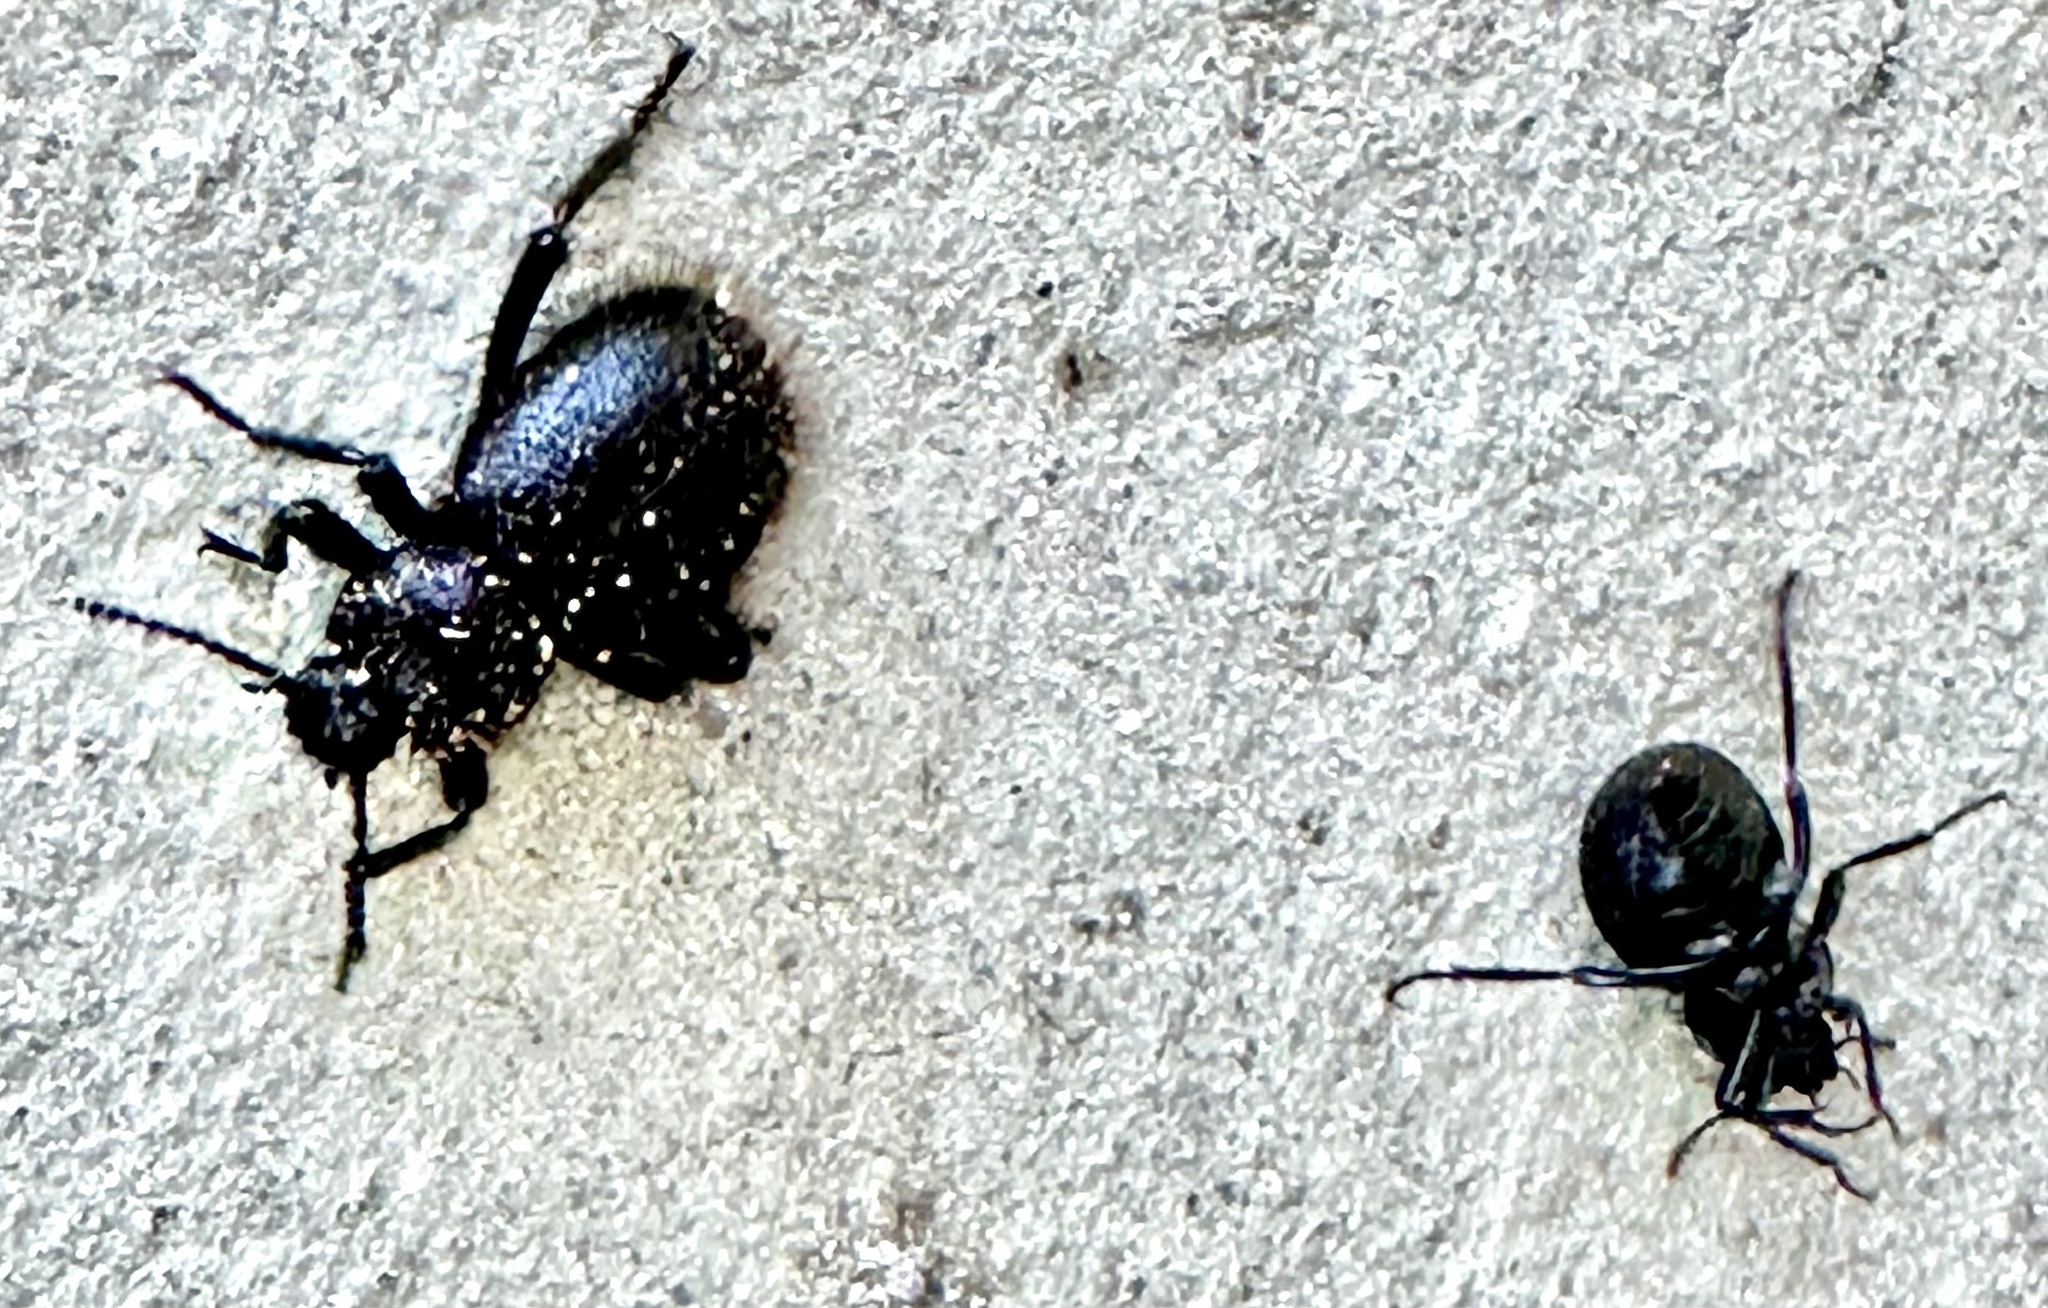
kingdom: Animalia
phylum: Arthropoda
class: Insecta
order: Coleoptera
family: Tenebrionidae
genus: Eleodes
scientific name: Eleodes osculans
